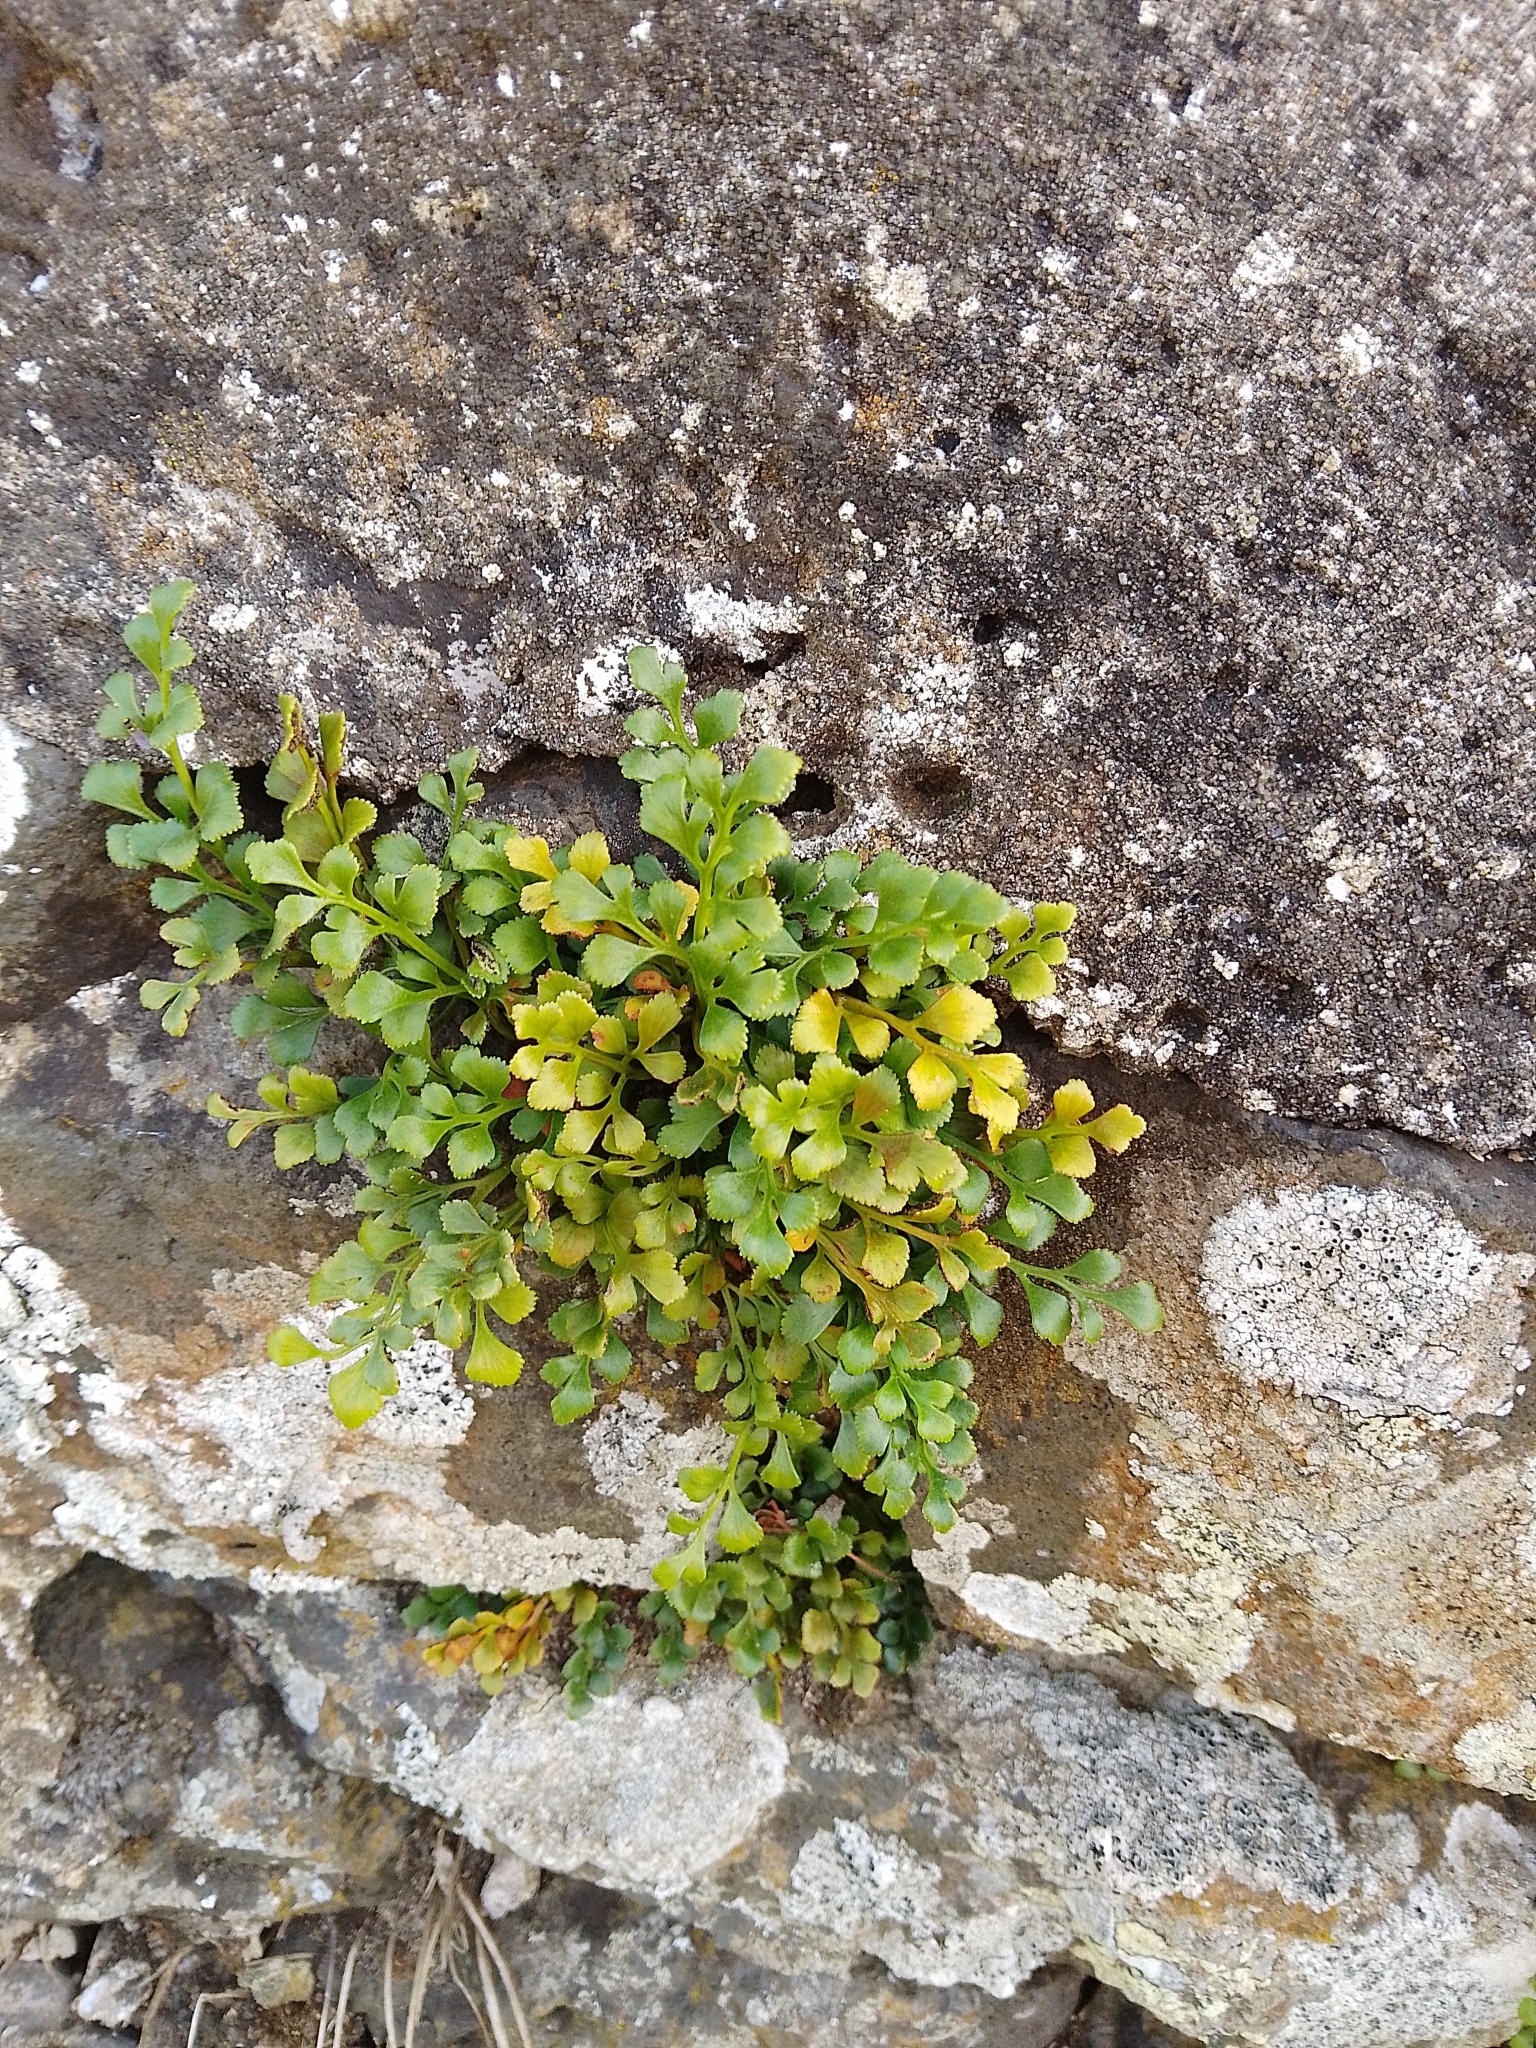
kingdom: Plantae
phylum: Tracheophyta
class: Polypodiopsida
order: Polypodiales
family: Aspleniaceae
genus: Asplenium
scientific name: Asplenium ruta-muraria
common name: Wall-rue
